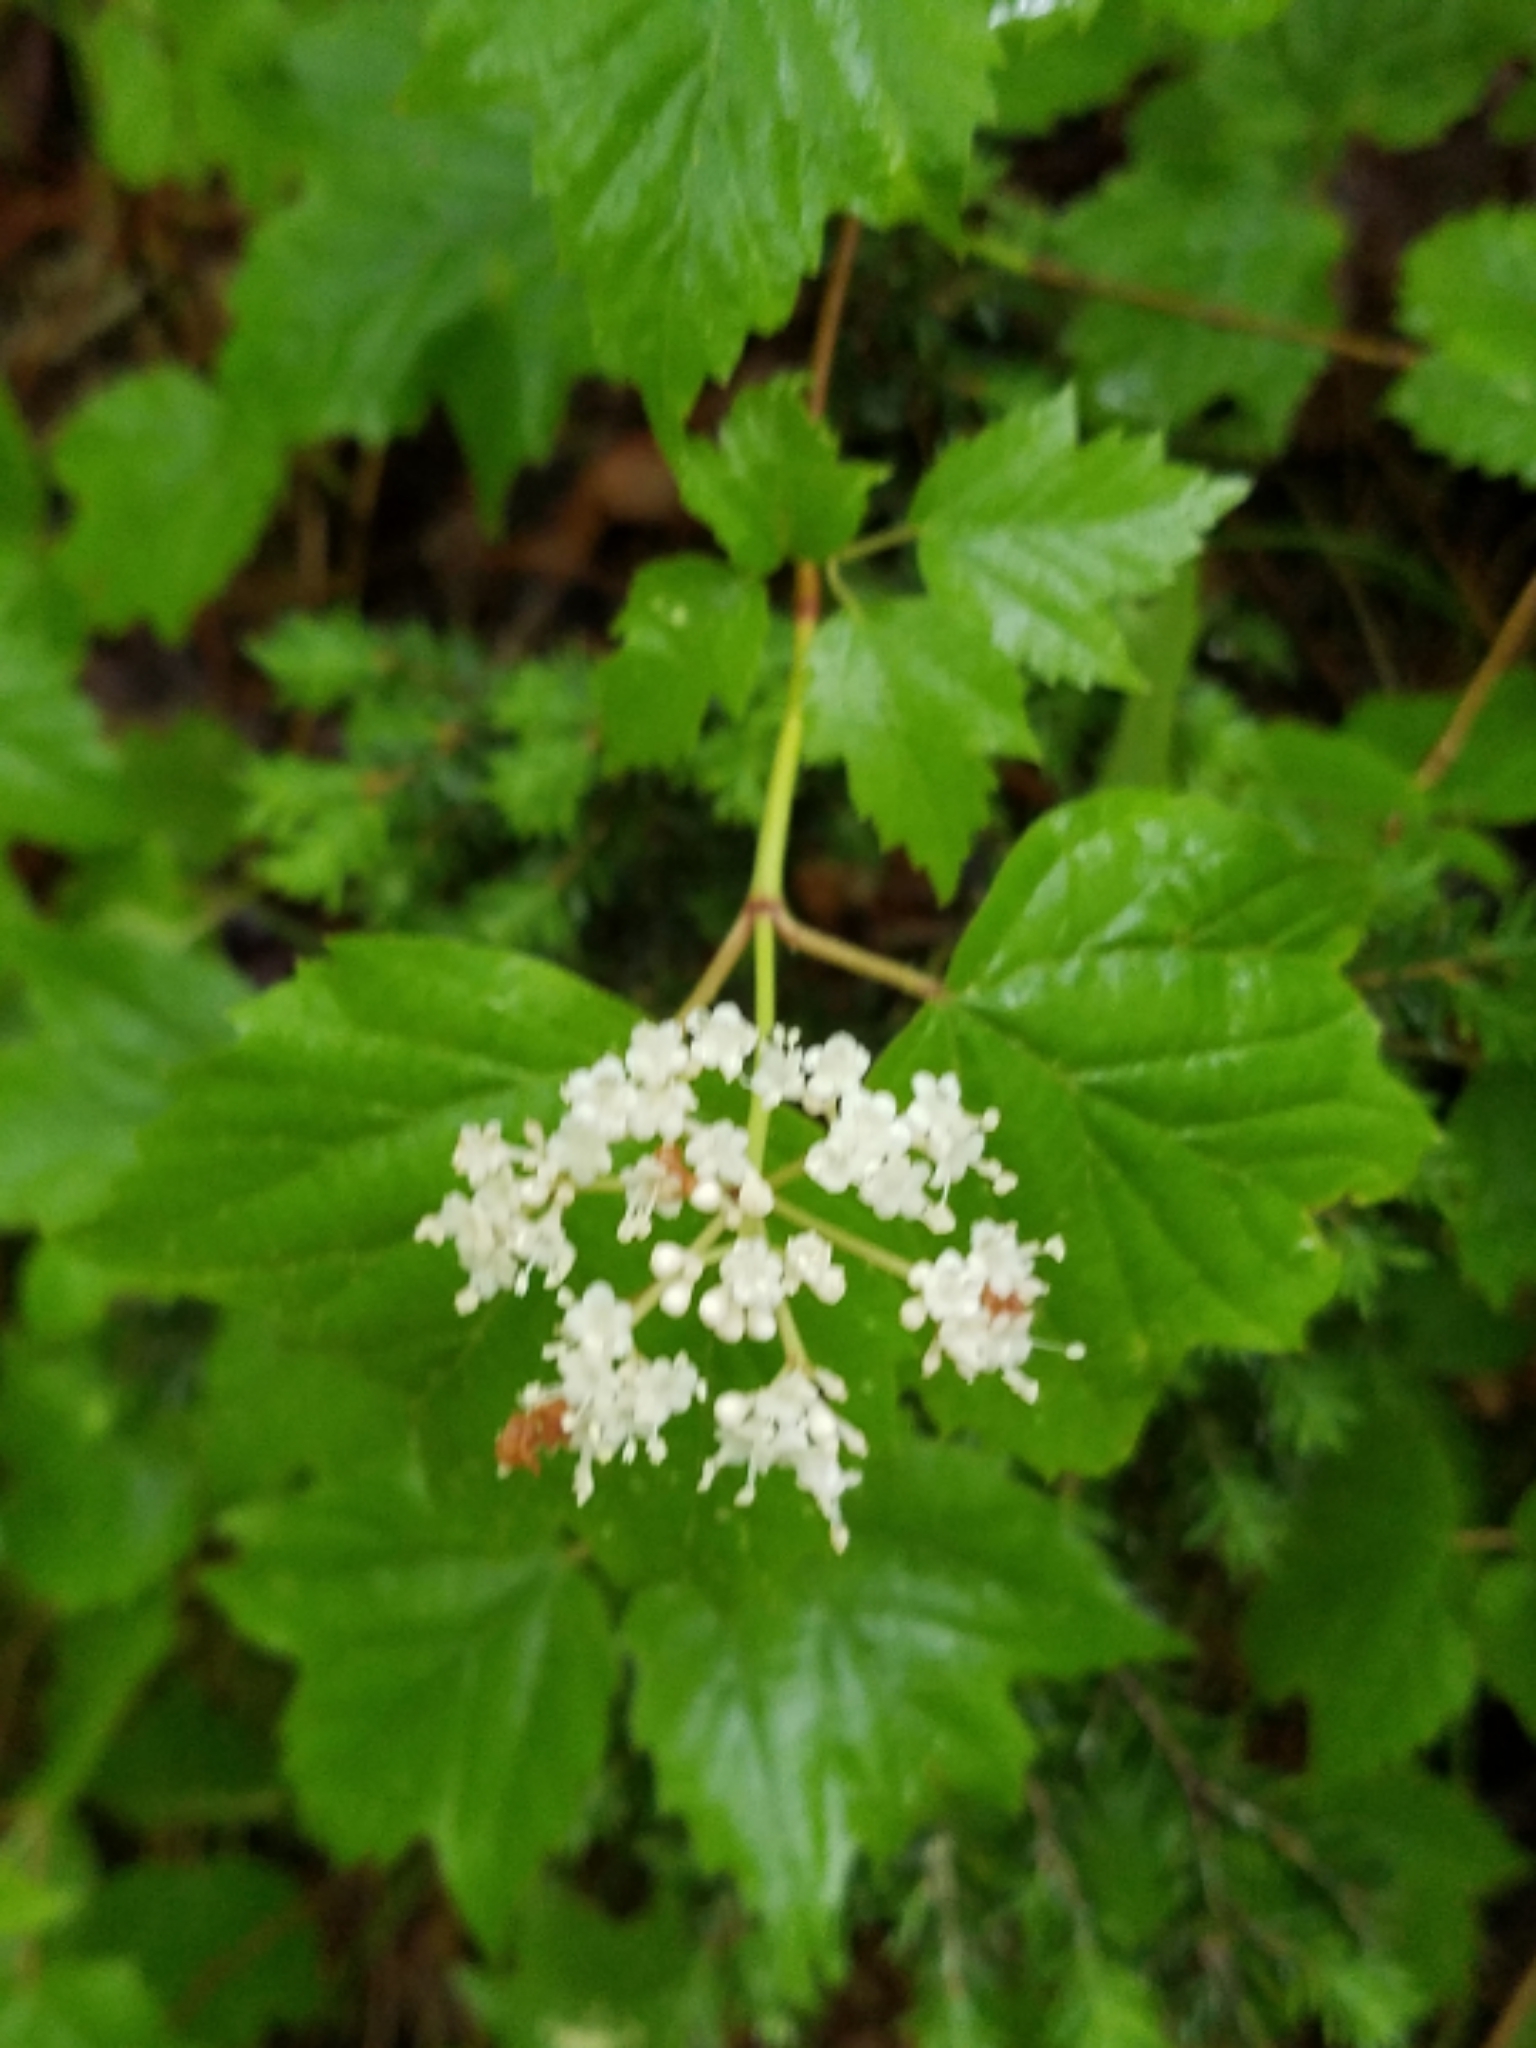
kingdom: Plantae
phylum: Tracheophyta
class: Magnoliopsida
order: Dipsacales
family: Viburnaceae
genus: Viburnum
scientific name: Viburnum acerifolium
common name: Dockmackie
